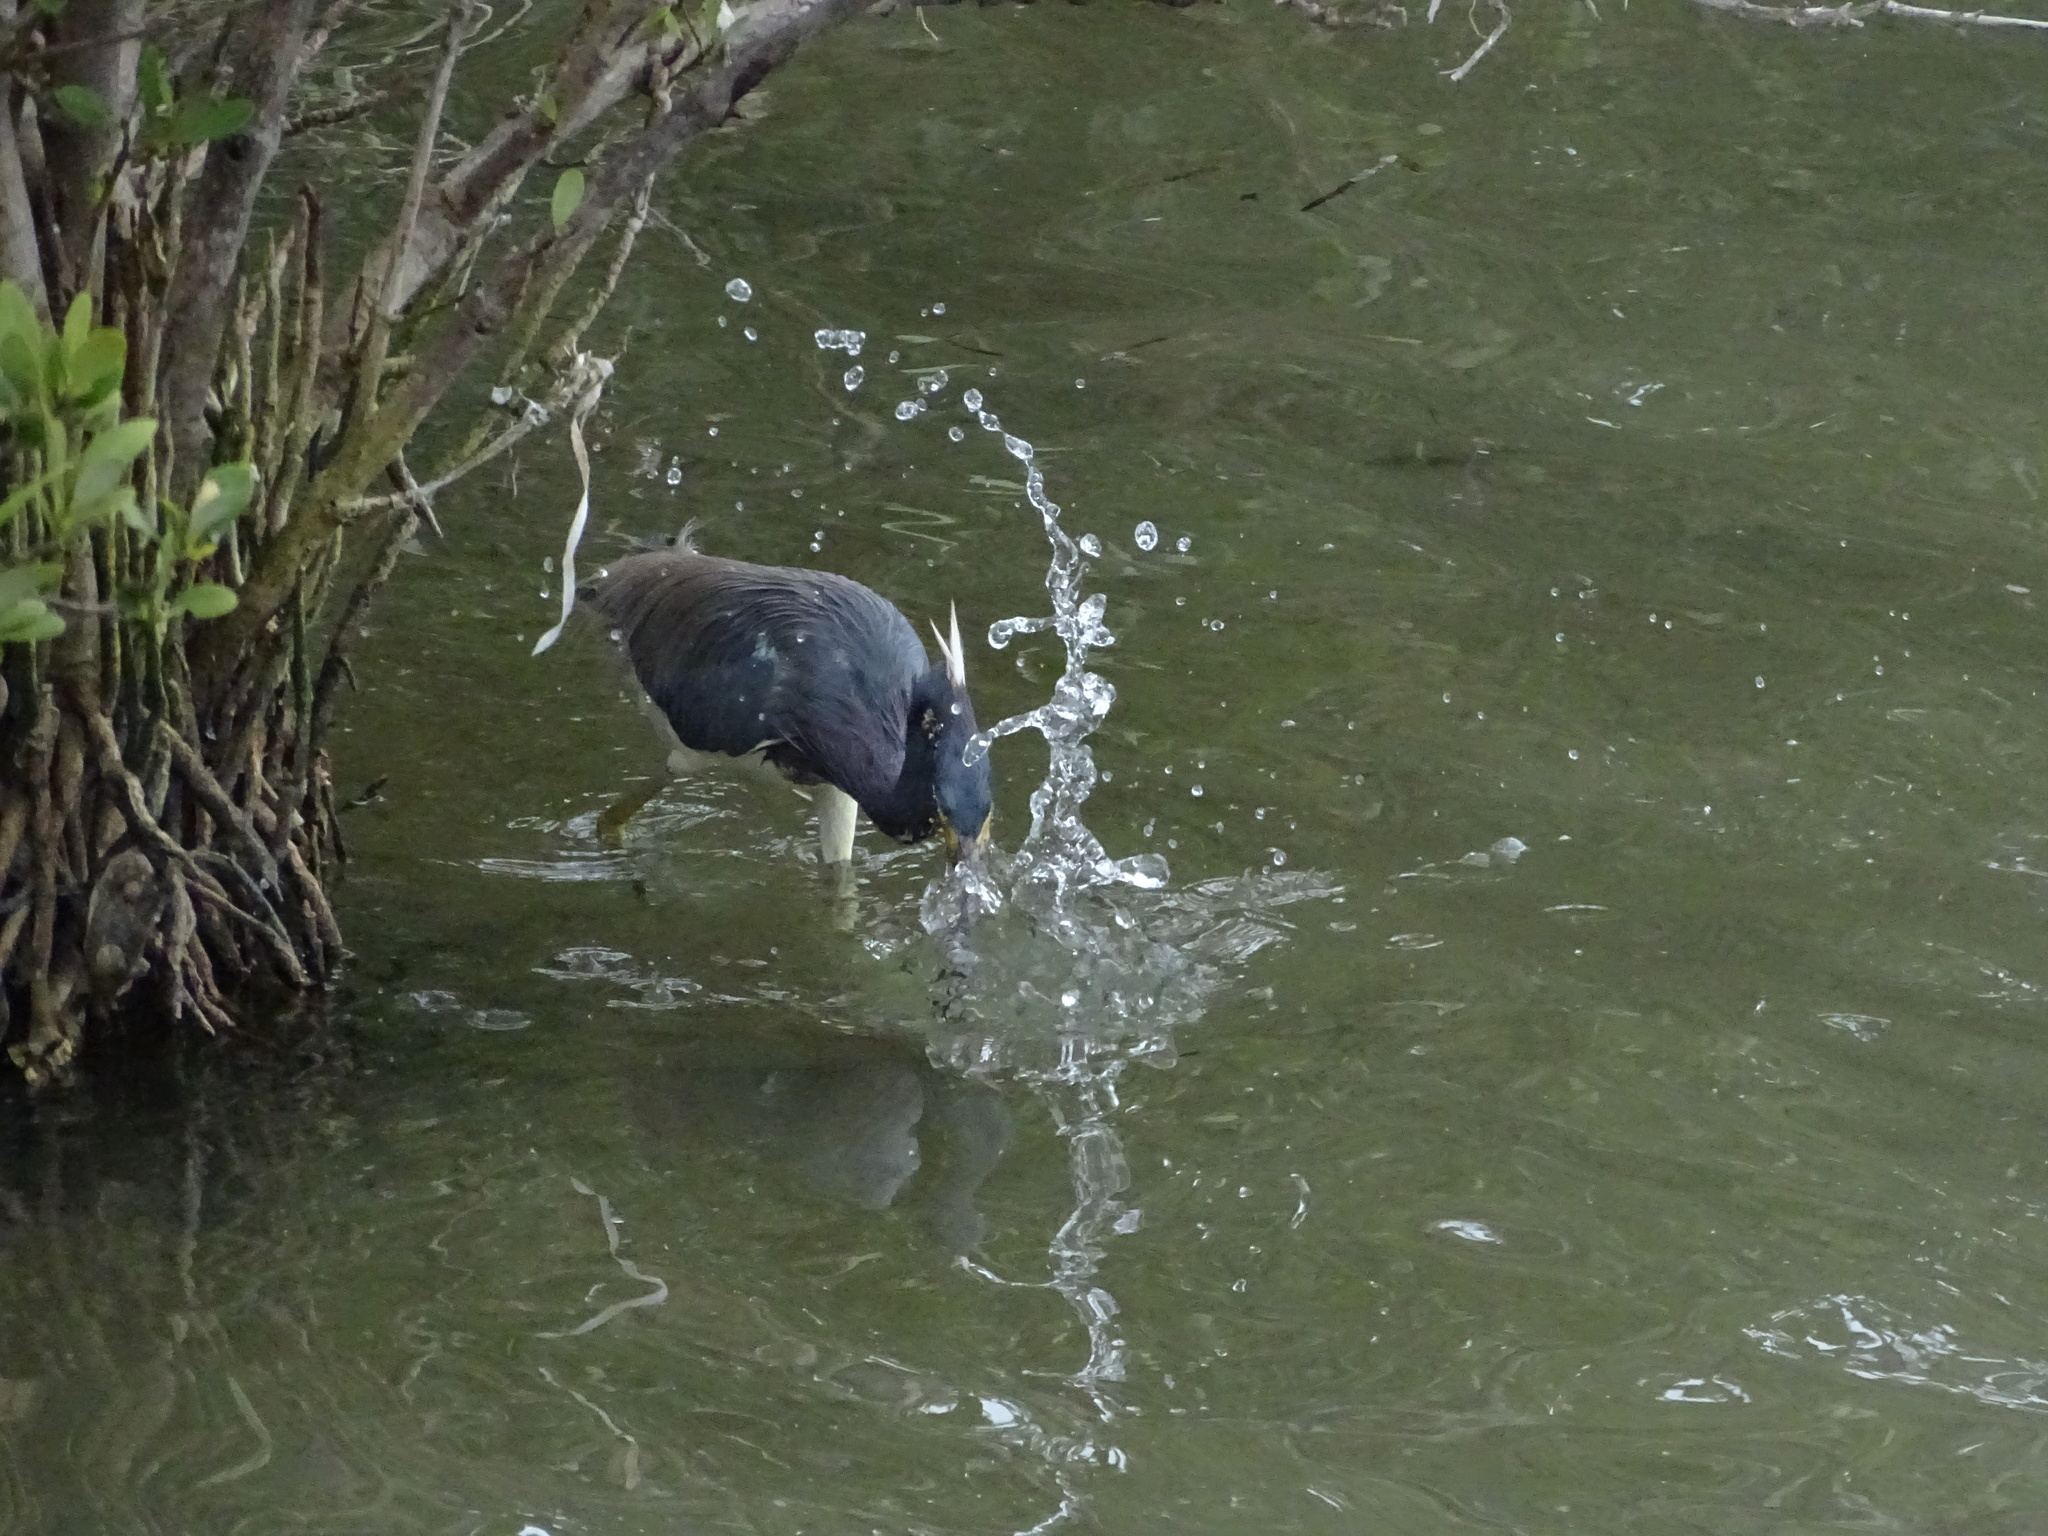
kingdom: Animalia
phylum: Chordata
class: Aves
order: Pelecaniformes
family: Ardeidae
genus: Egretta
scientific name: Egretta tricolor
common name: Tricolored heron
